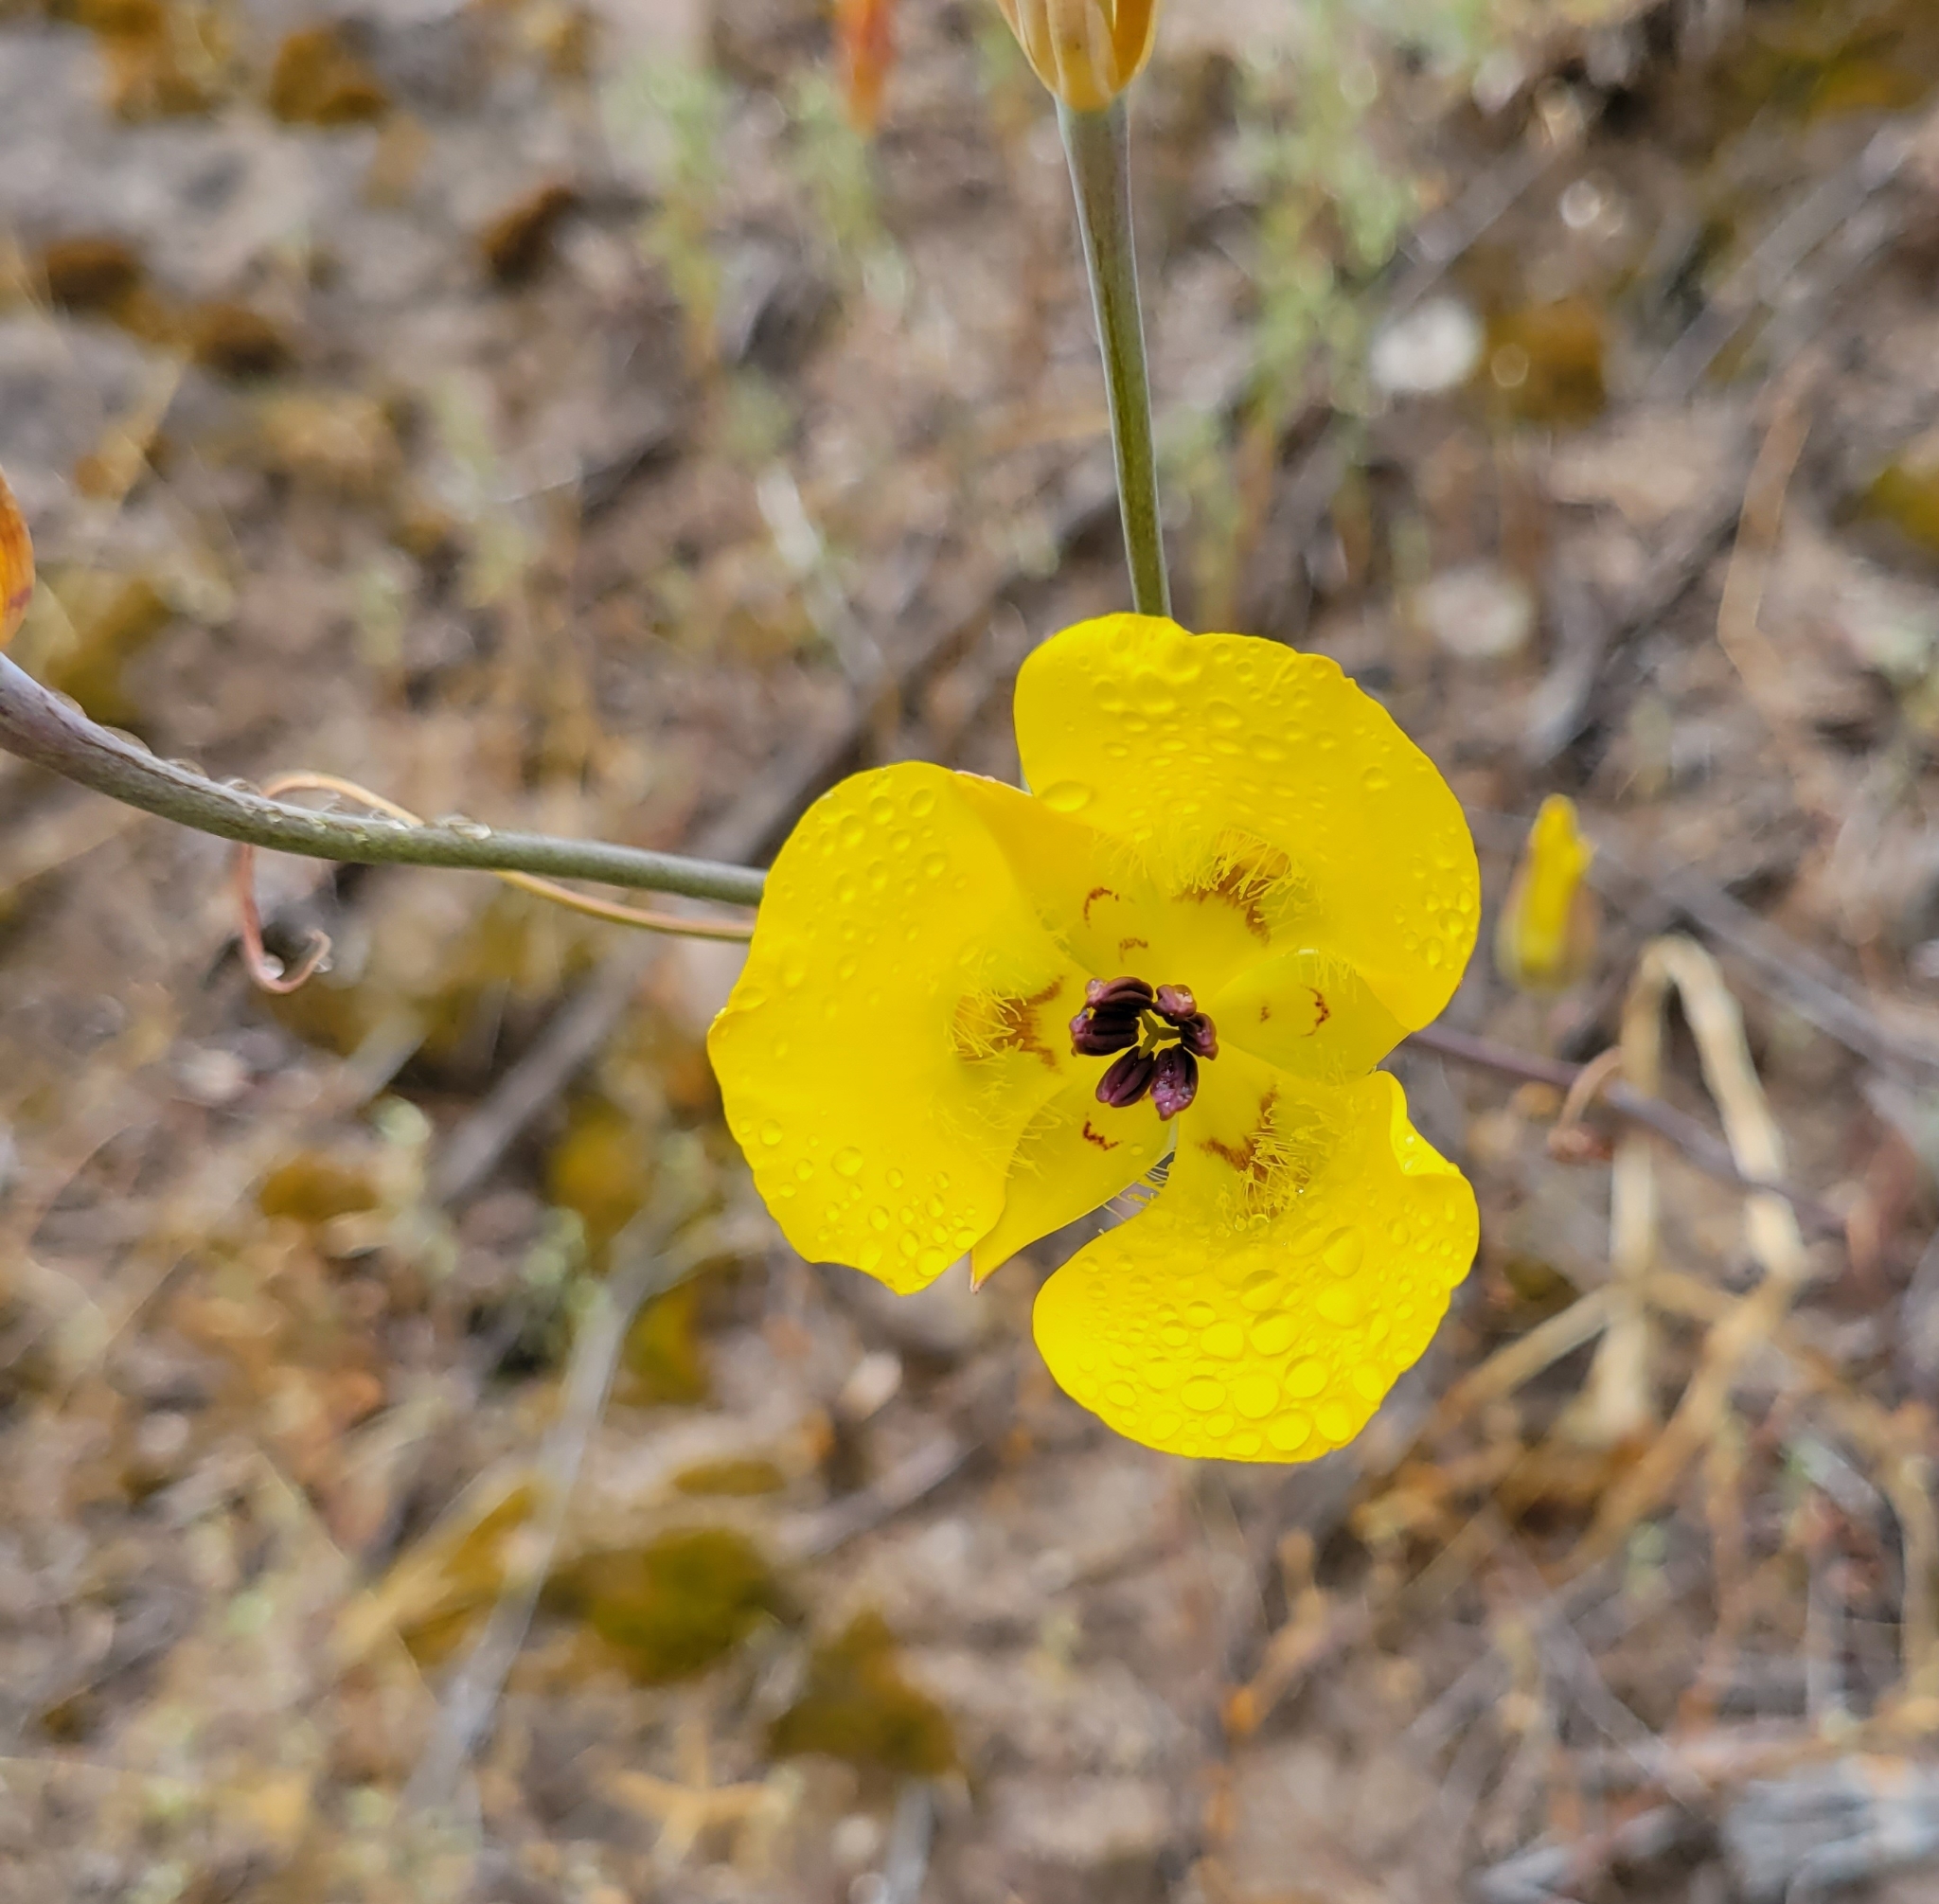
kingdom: Plantae
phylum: Tracheophyta
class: Liliopsida
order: Liliales
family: Liliaceae
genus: Calochortus
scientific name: Calochortus clavatus
